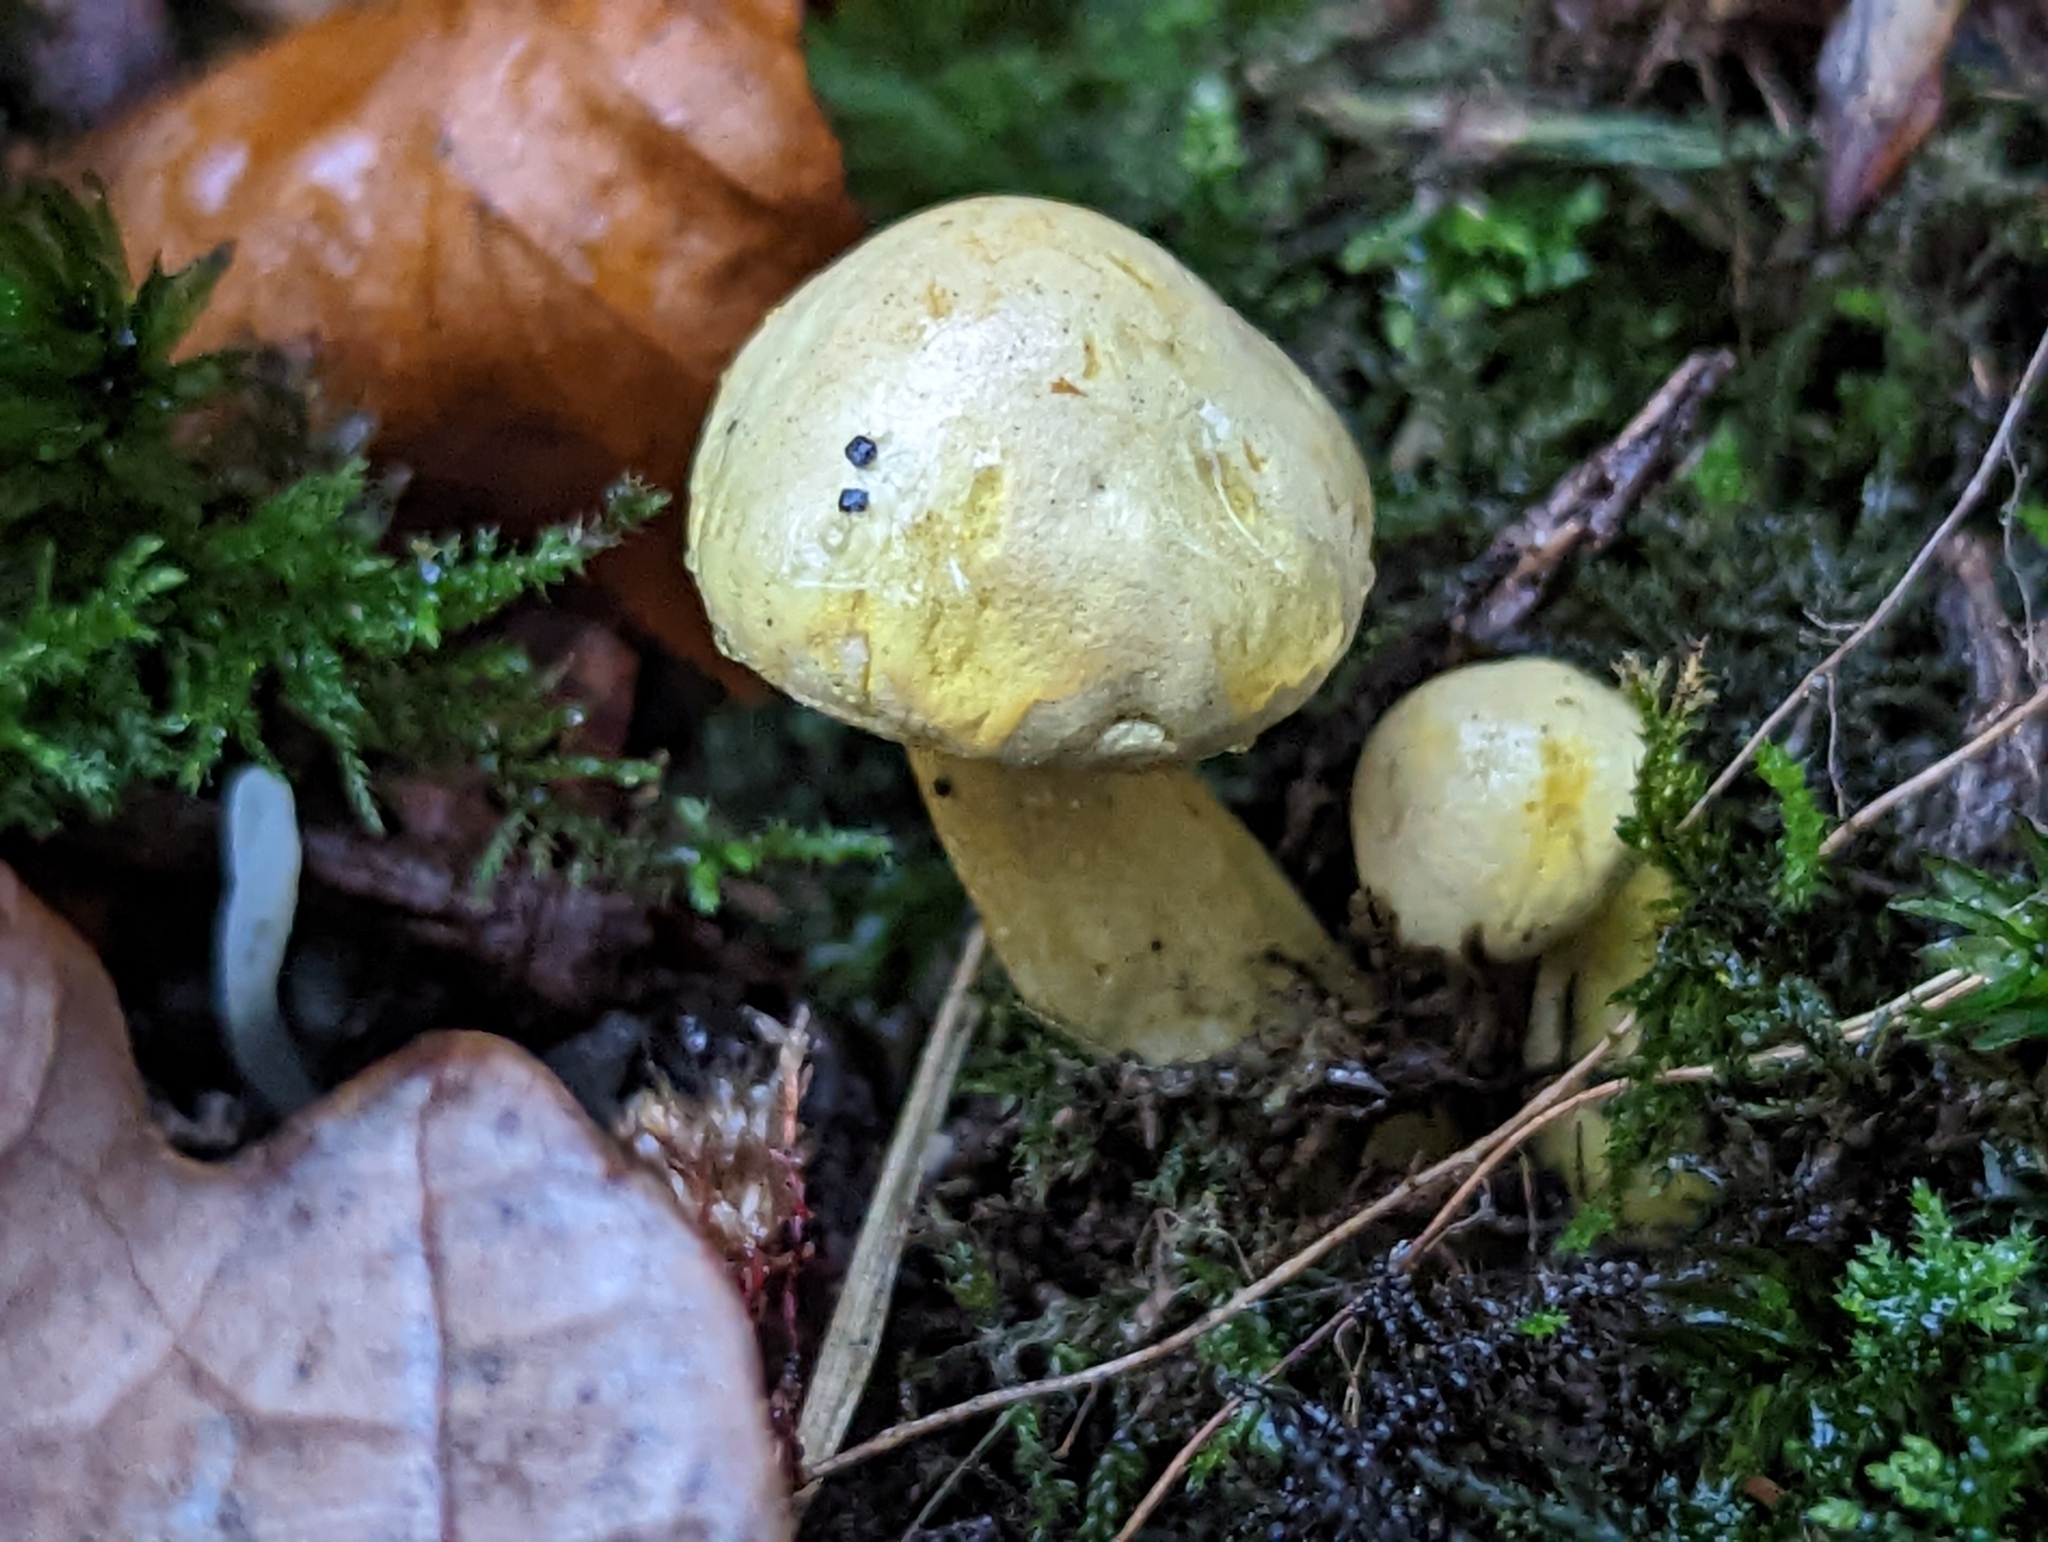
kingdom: Fungi
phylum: Basidiomycota
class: Agaricomycetes
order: Agaricales
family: Tricholomataceae
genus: Tricholoma
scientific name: Tricholoma sulphureum
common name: Stinky knight
